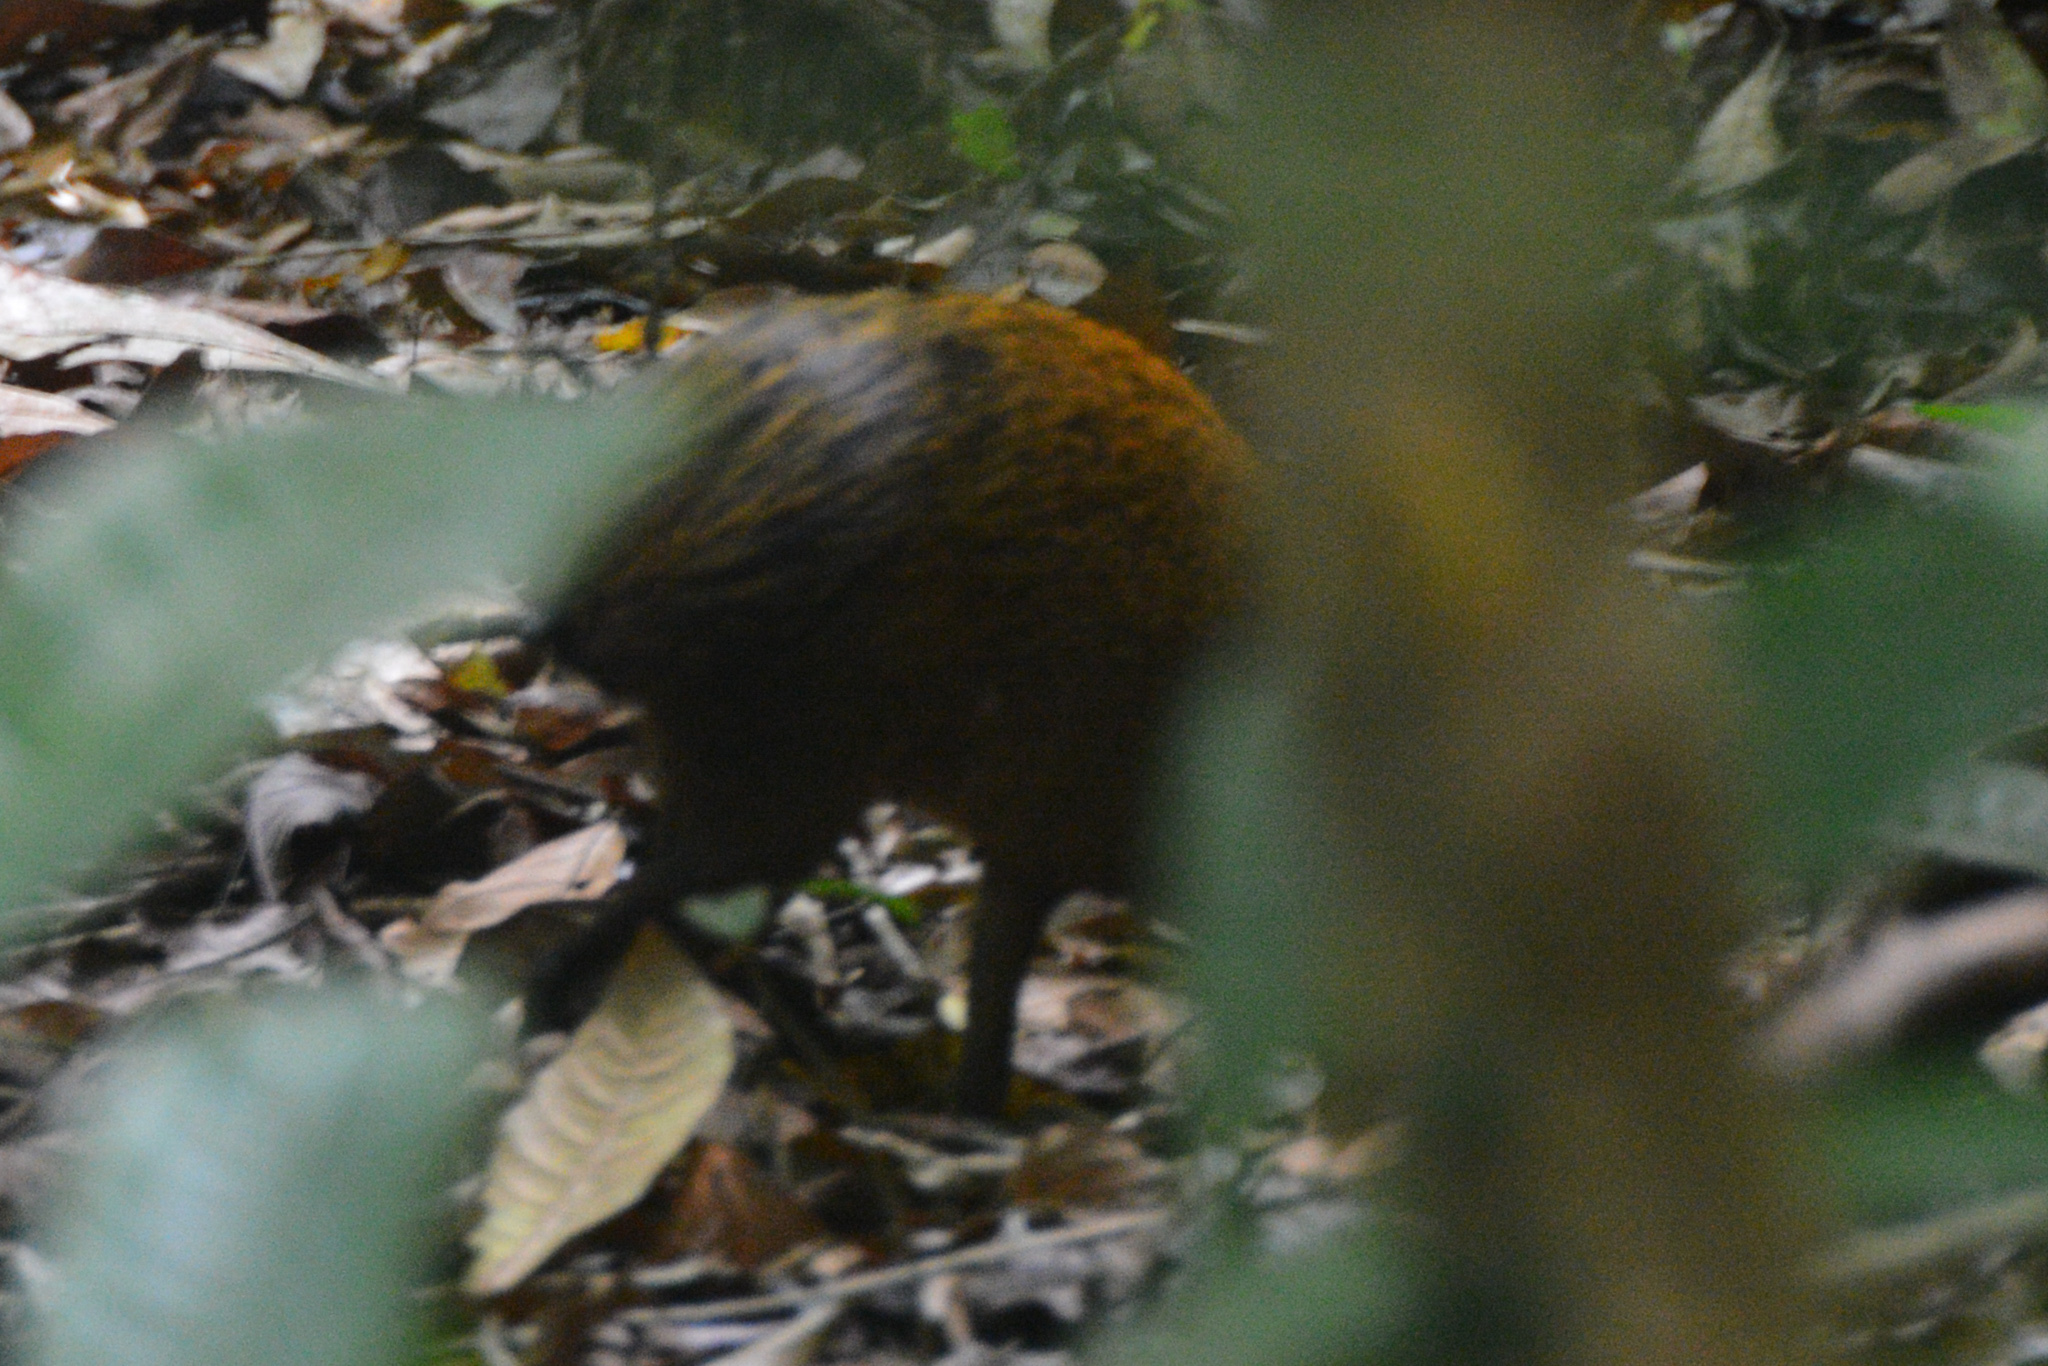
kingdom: Animalia
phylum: Chordata
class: Mammalia
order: Rodentia
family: Dasyproctidae
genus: Dasyprocta
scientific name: Dasyprocta punctata
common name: Central american agouti
